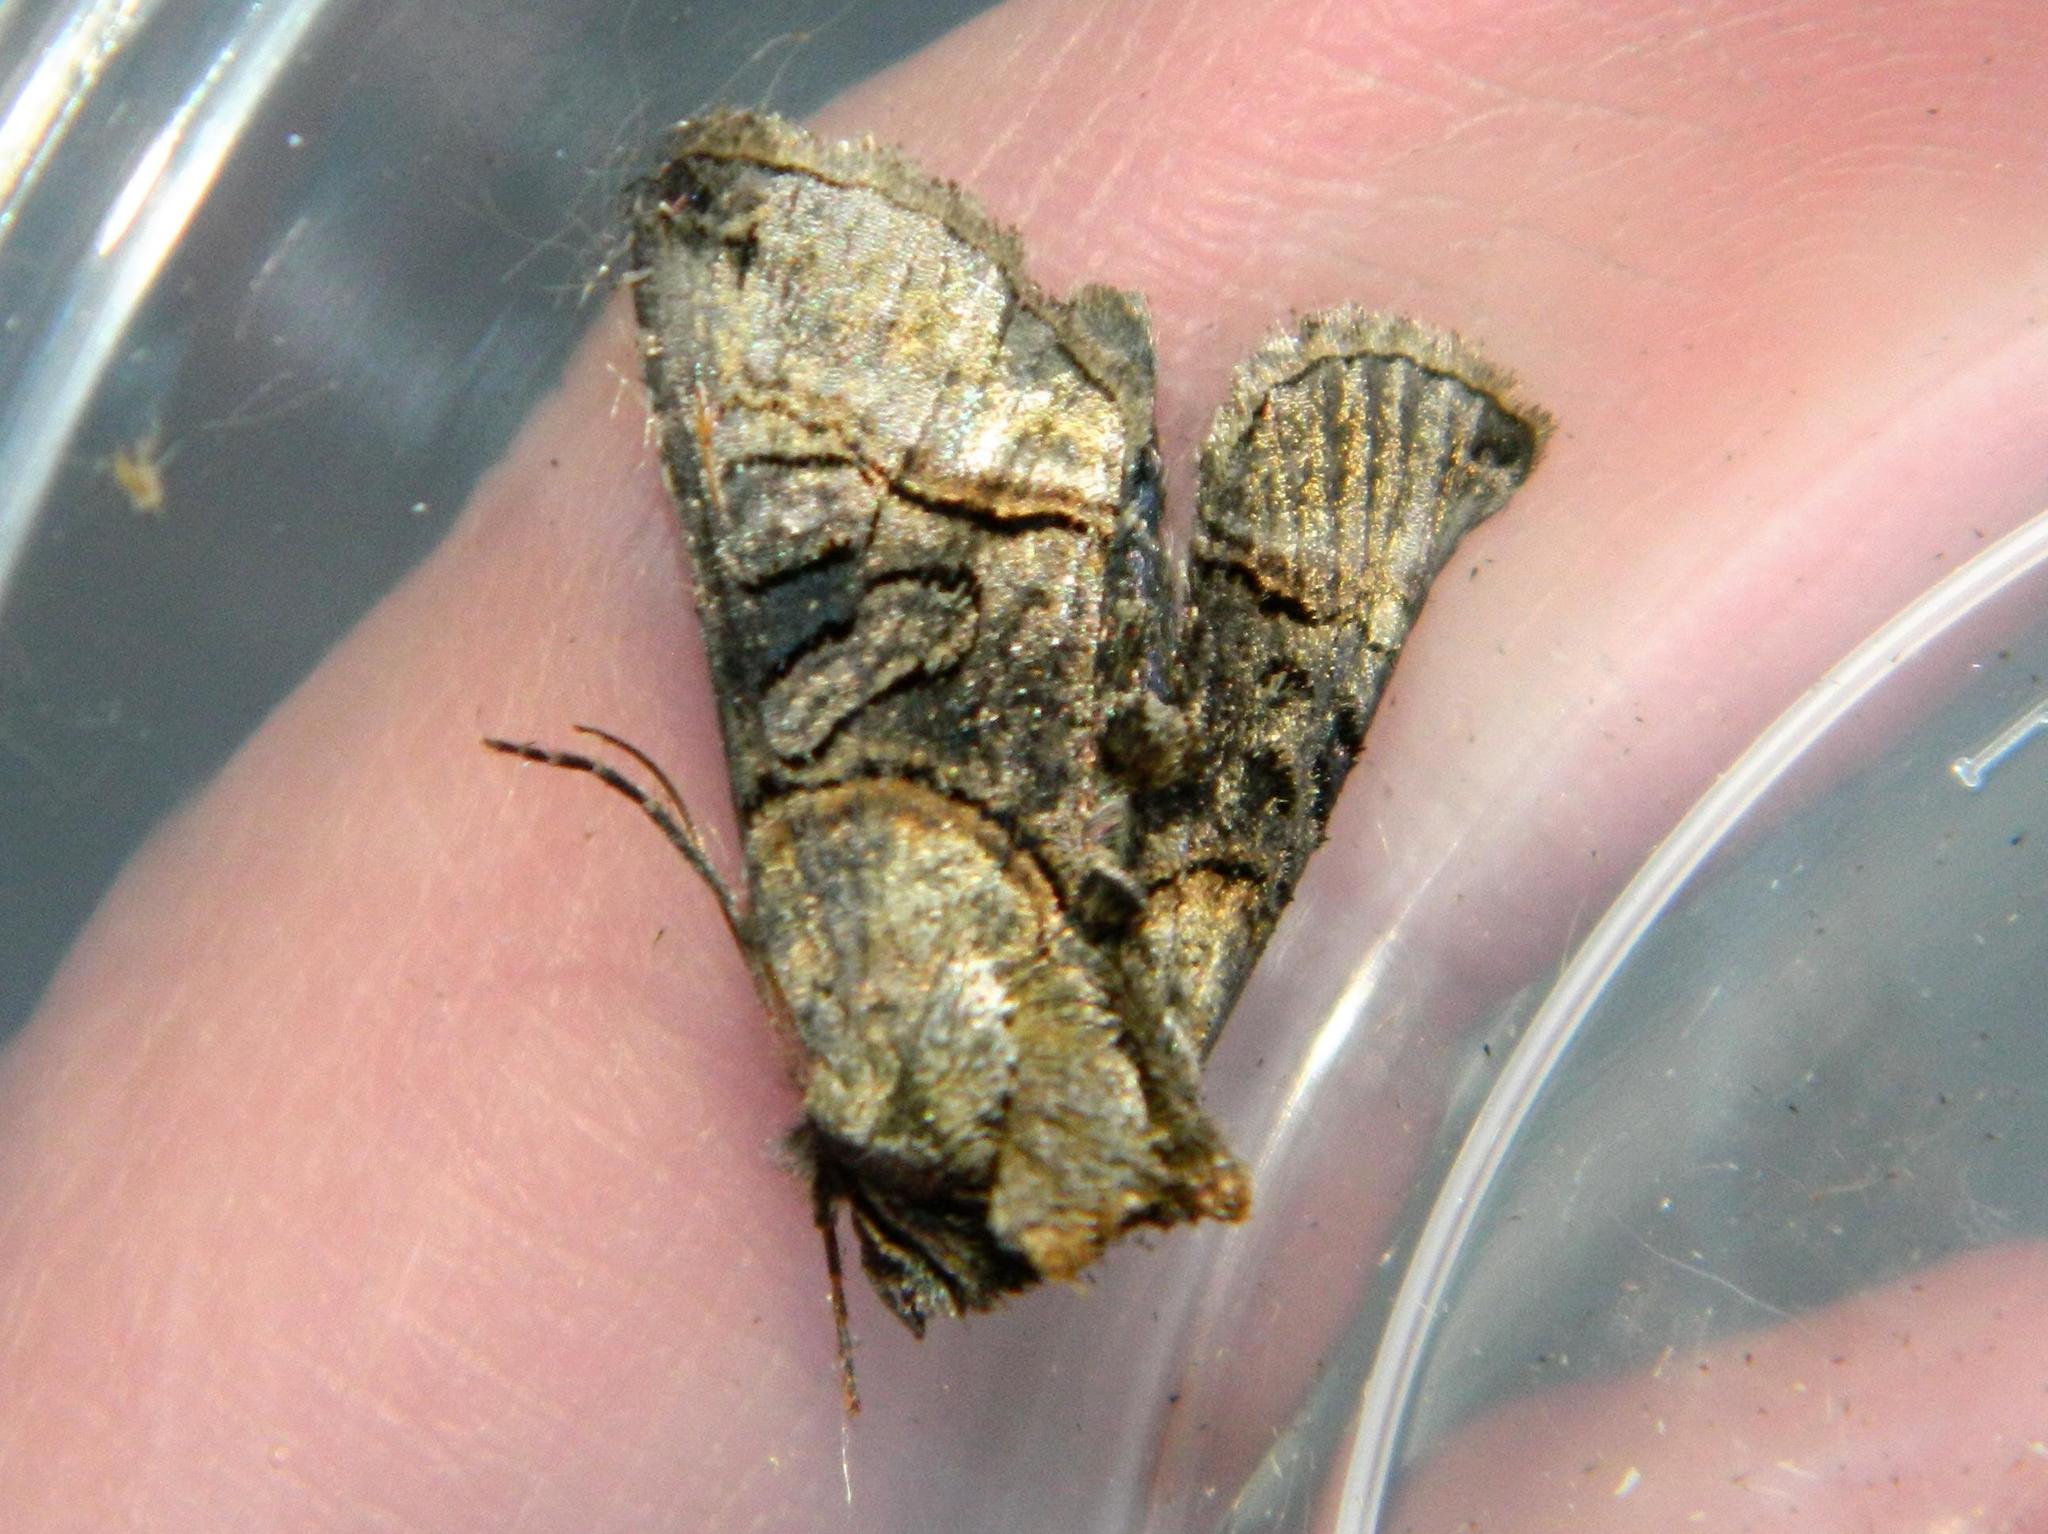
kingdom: Animalia
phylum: Arthropoda
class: Insecta
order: Lepidoptera
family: Noctuidae
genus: Abrostola
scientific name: Abrostola tripartita
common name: Spectacle
